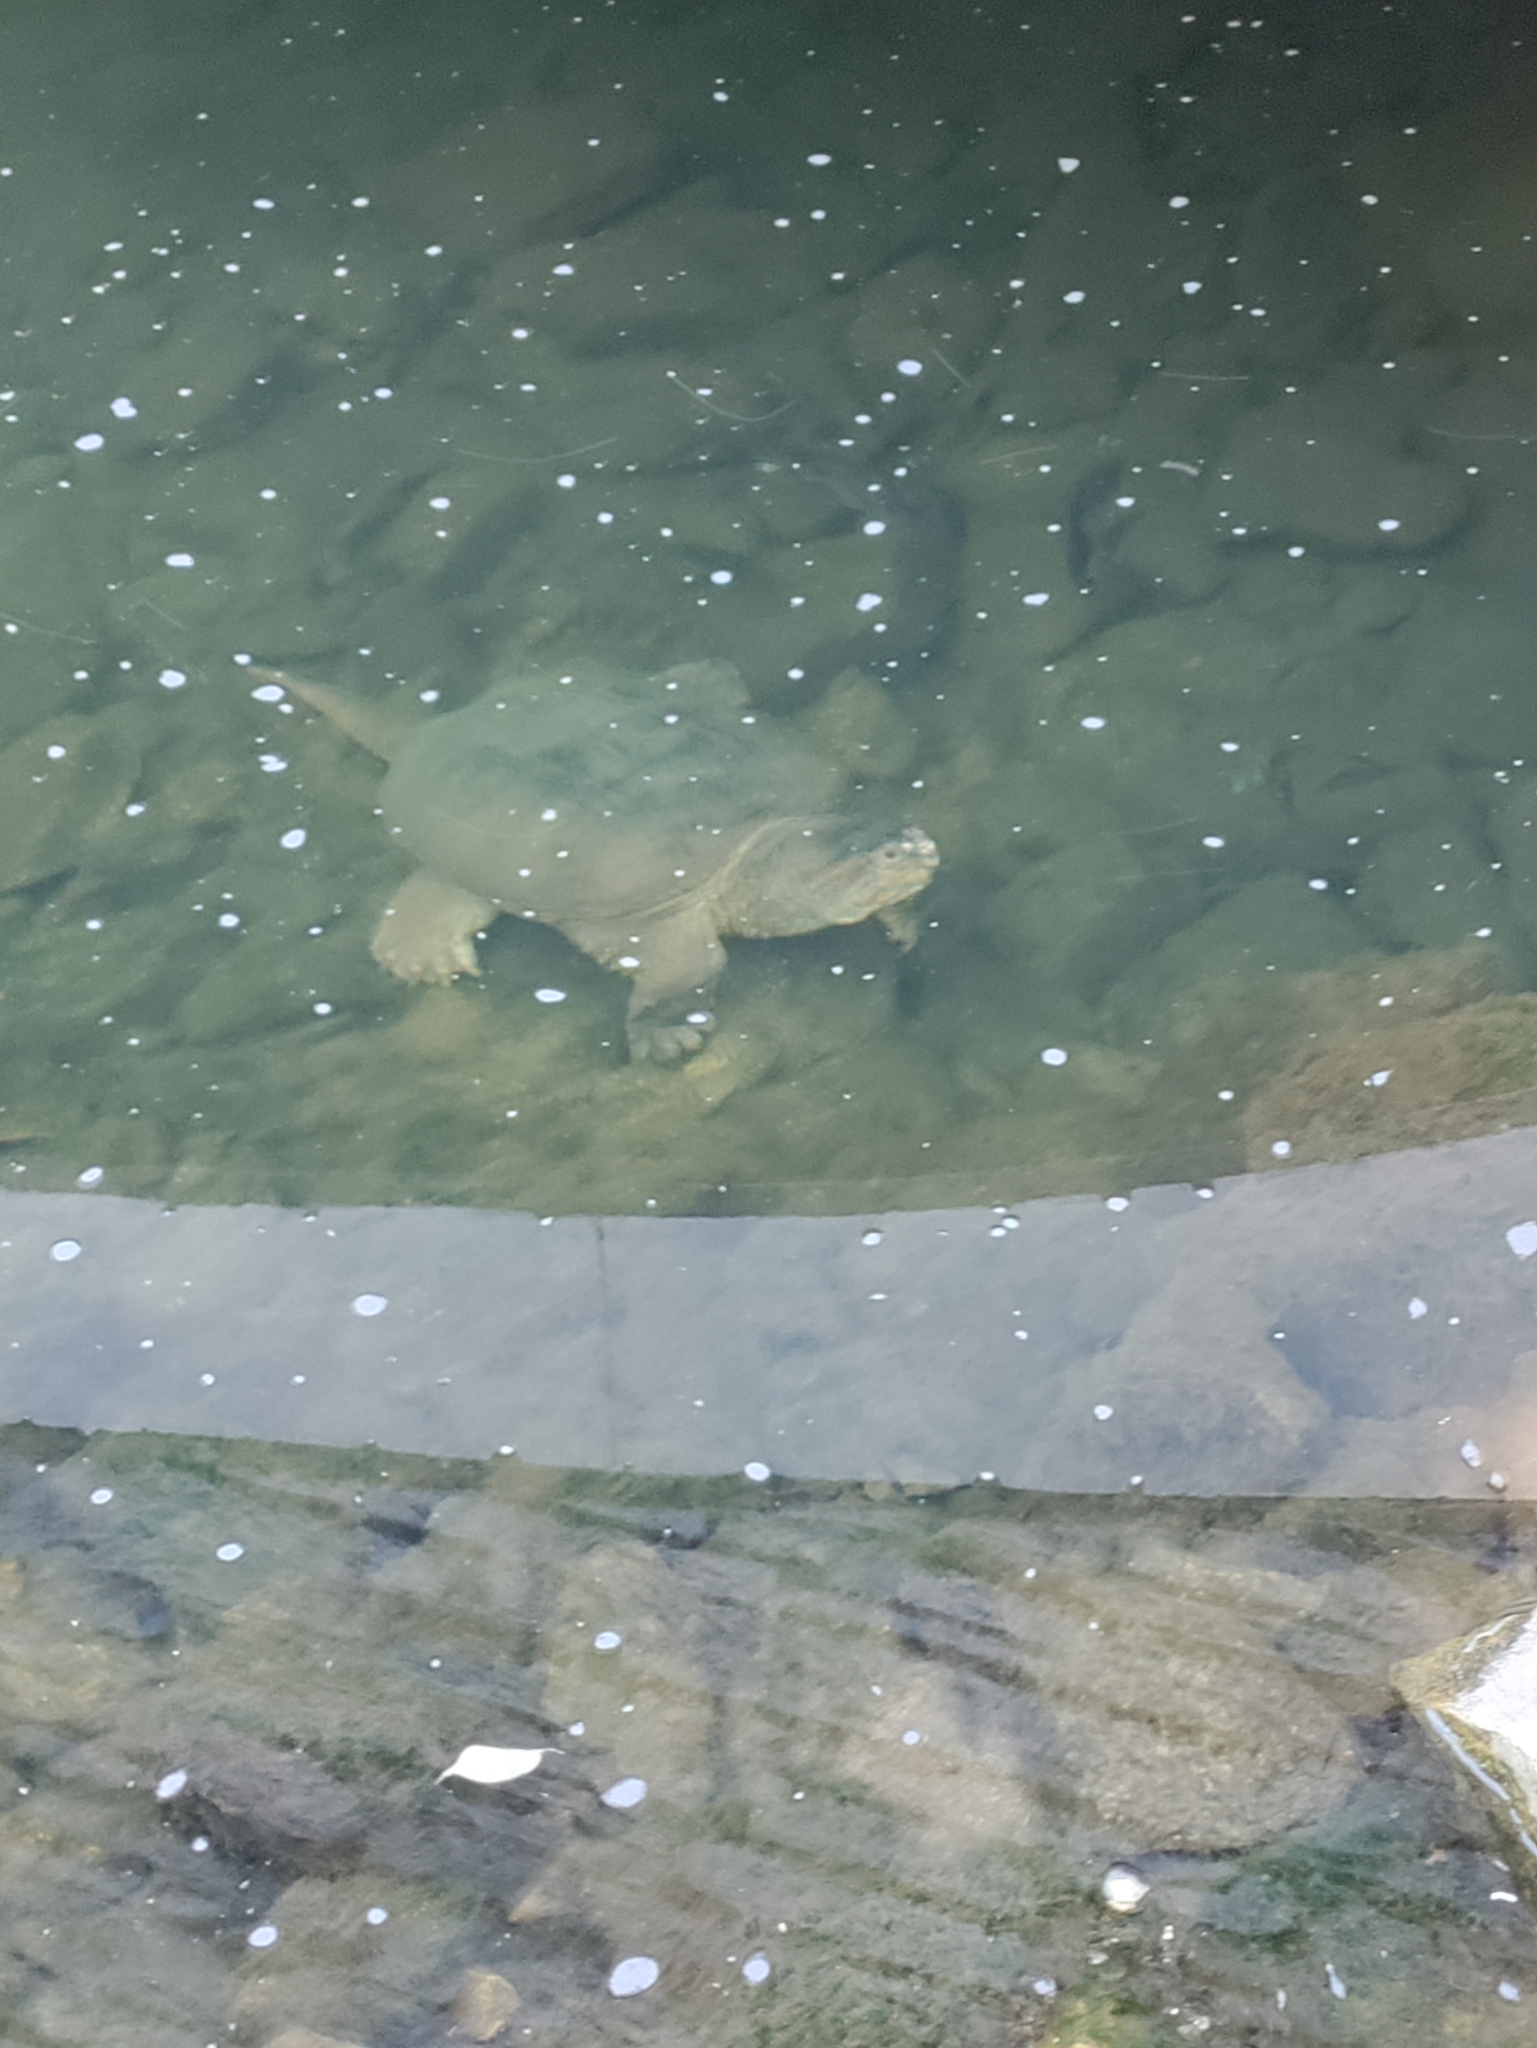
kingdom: Animalia
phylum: Chordata
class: Testudines
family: Chelydridae
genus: Chelydra
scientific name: Chelydra serpentina
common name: Common snapping turtle
